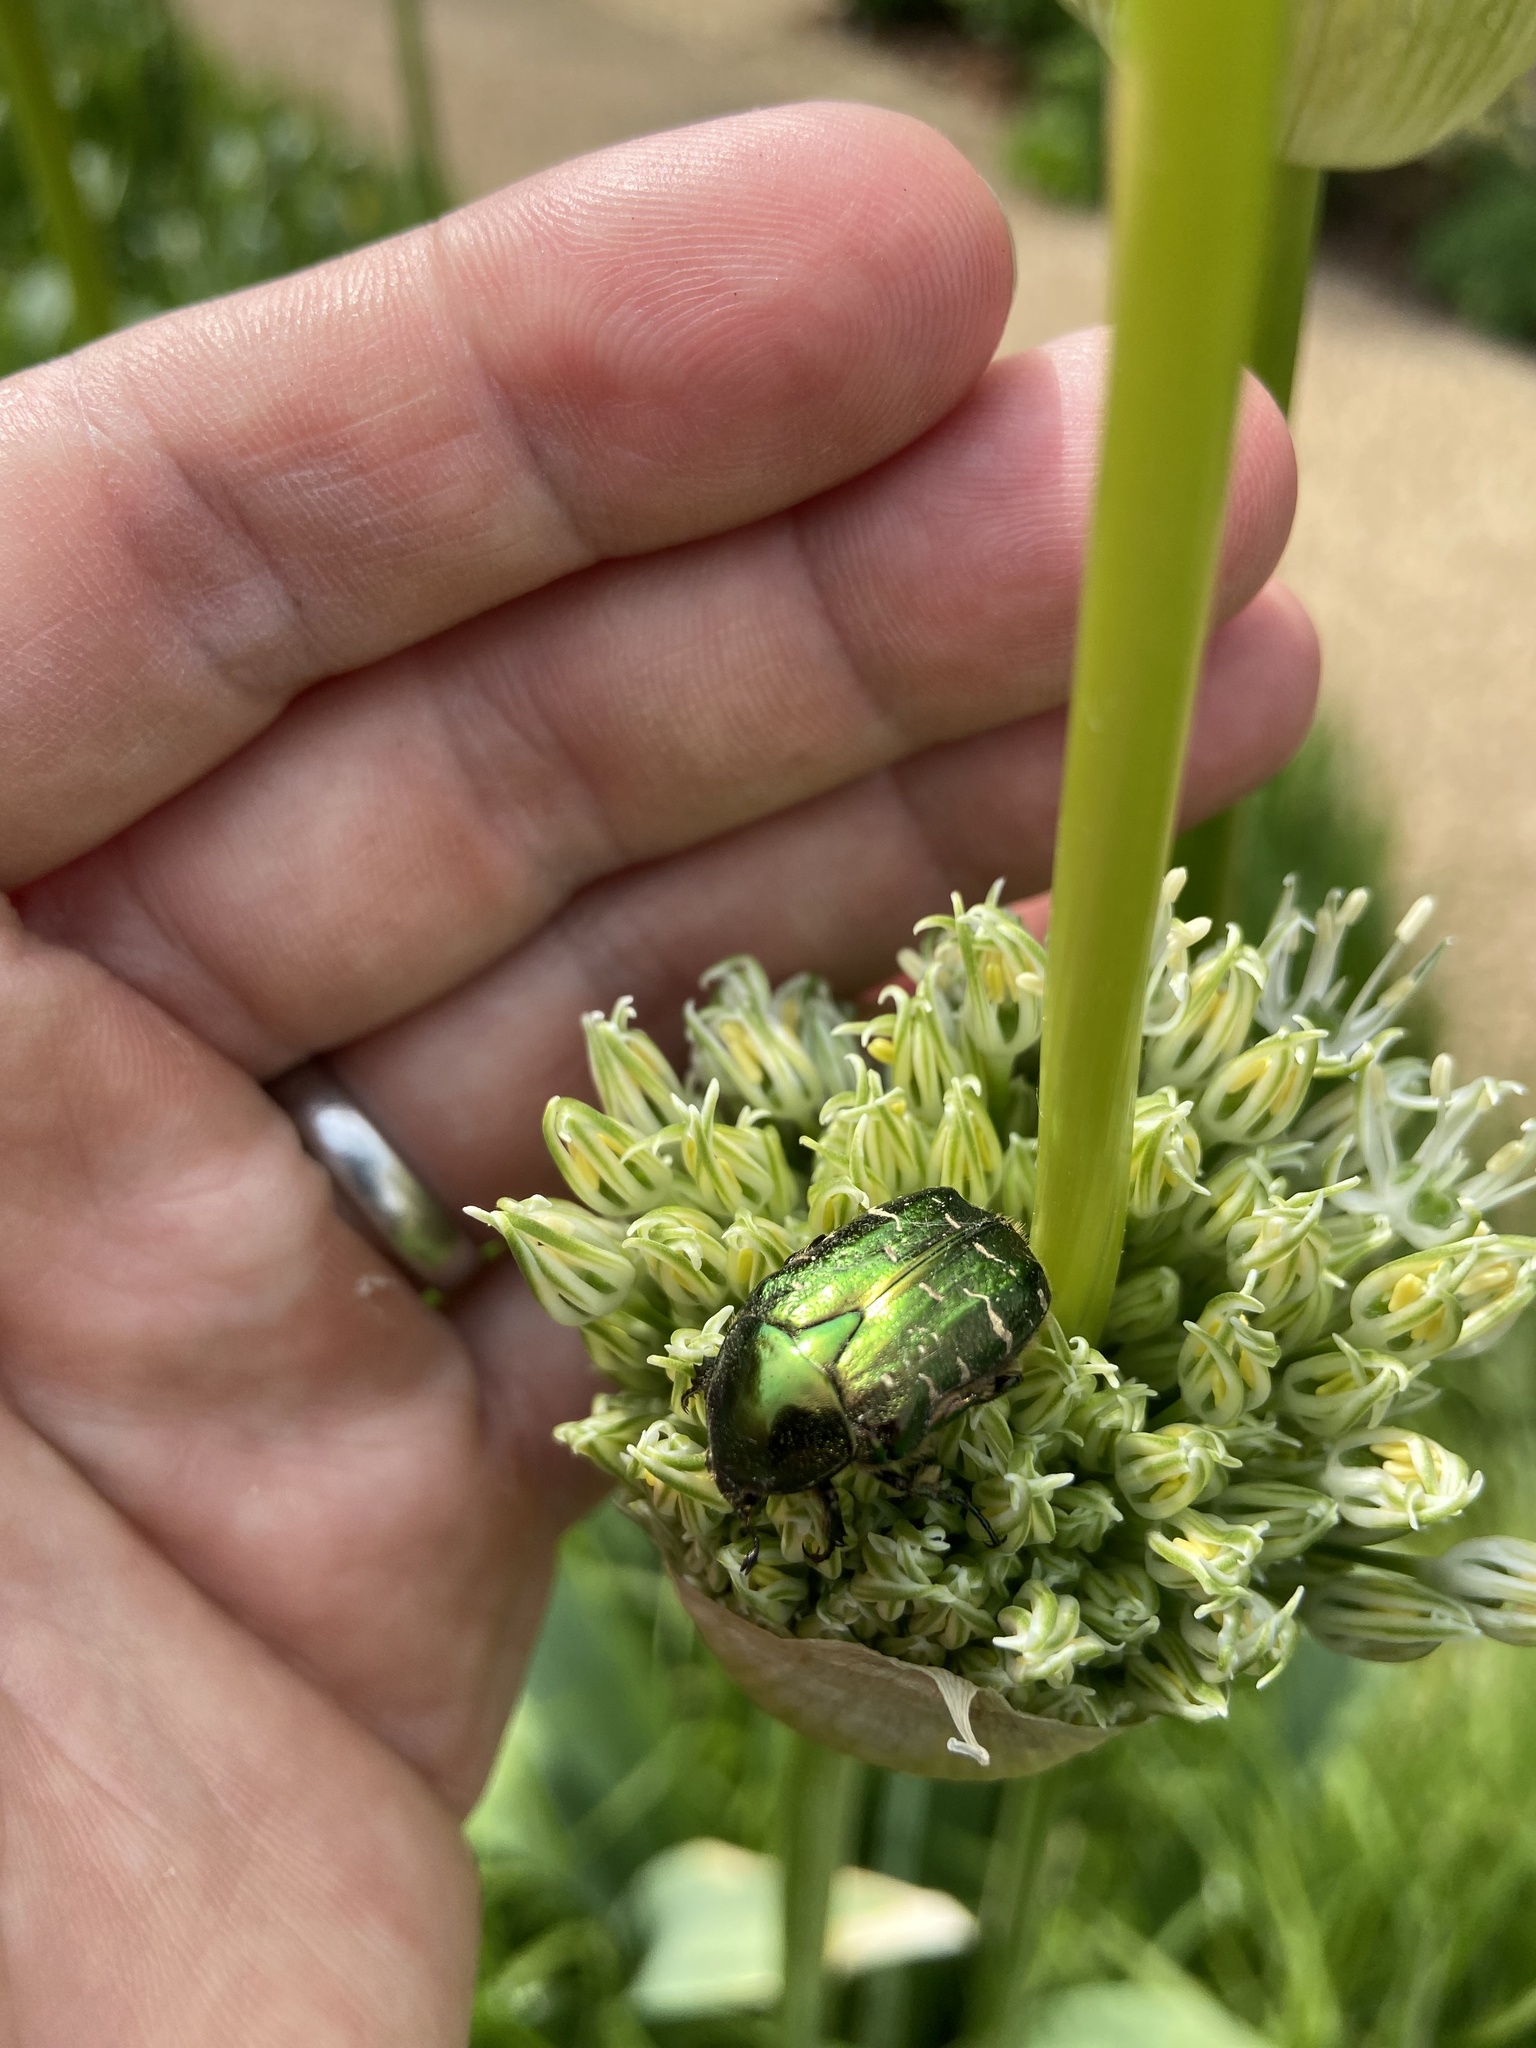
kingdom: Animalia
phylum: Arthropoda
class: Insecta
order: Coleoptera
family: Scarabaeidae
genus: Cetonia
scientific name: Cetonia aurata
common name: Rose chafer
